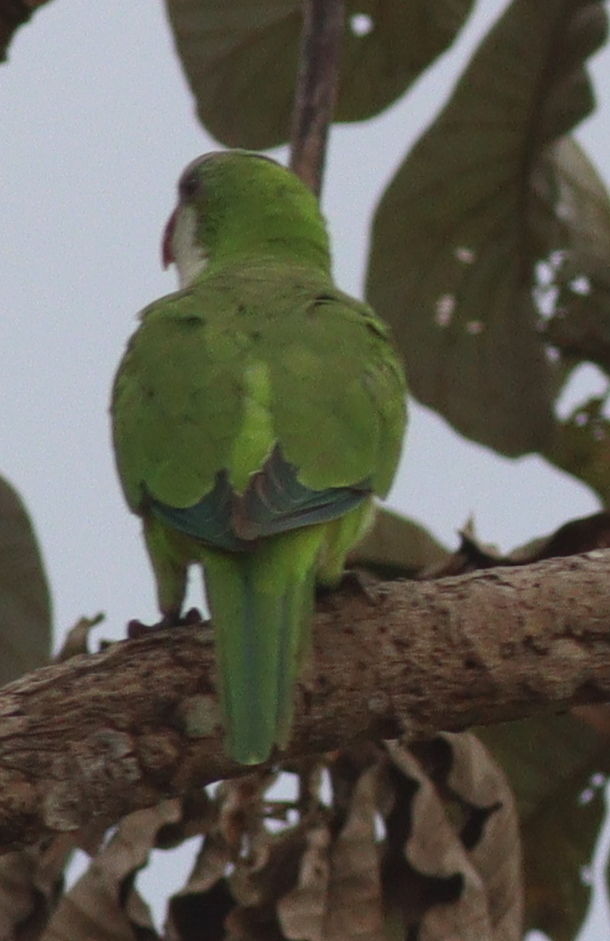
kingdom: Animalia
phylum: Chordata
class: Aves
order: Psittaciformes
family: Psittacidae
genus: Myiopsitta
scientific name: Myiopsitta monachus
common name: Monk parakeet
